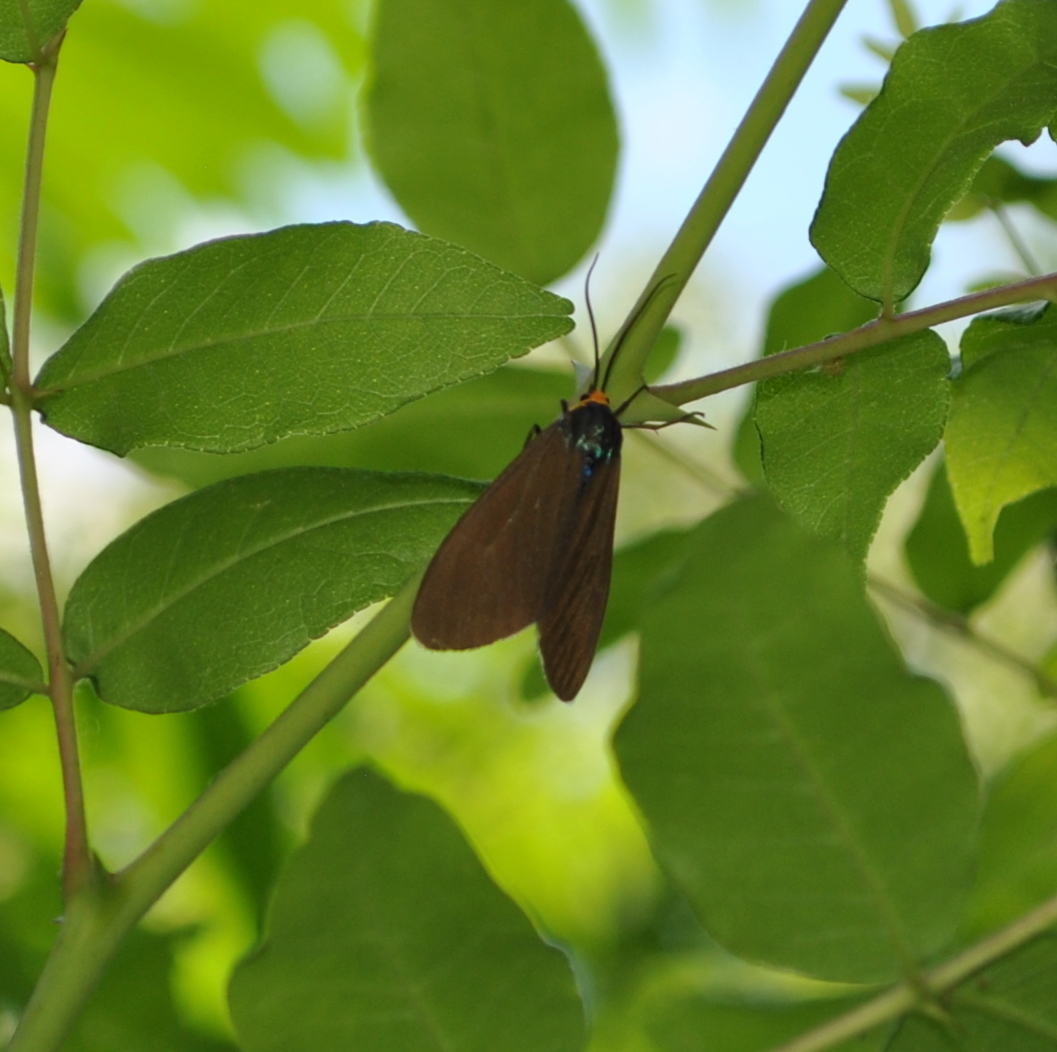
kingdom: Animalia
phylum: Arthropoda
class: Insecta
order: Lepidoptera
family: Erebidae
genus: Ctenucha
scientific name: Ctenucha virginica
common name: Virginia ctenucha moth
